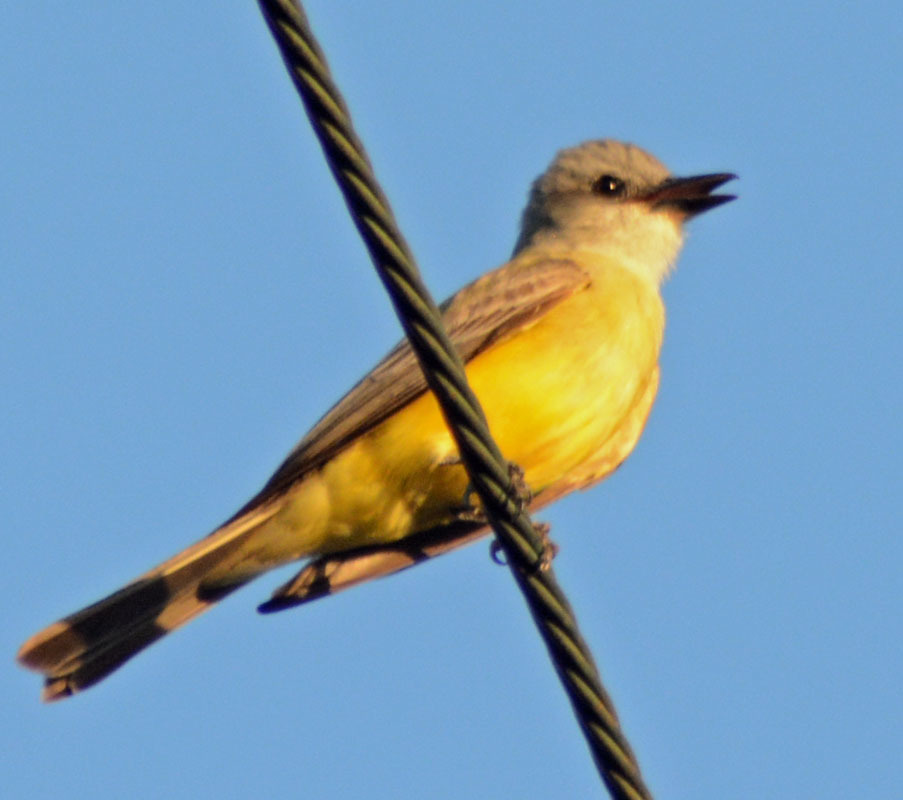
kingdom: Animalia
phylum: Chordata
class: Aves
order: Passeriformes
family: Tyrannidae
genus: Tyrannus
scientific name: Tyrannus melancholicus
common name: Tropical kingbird
